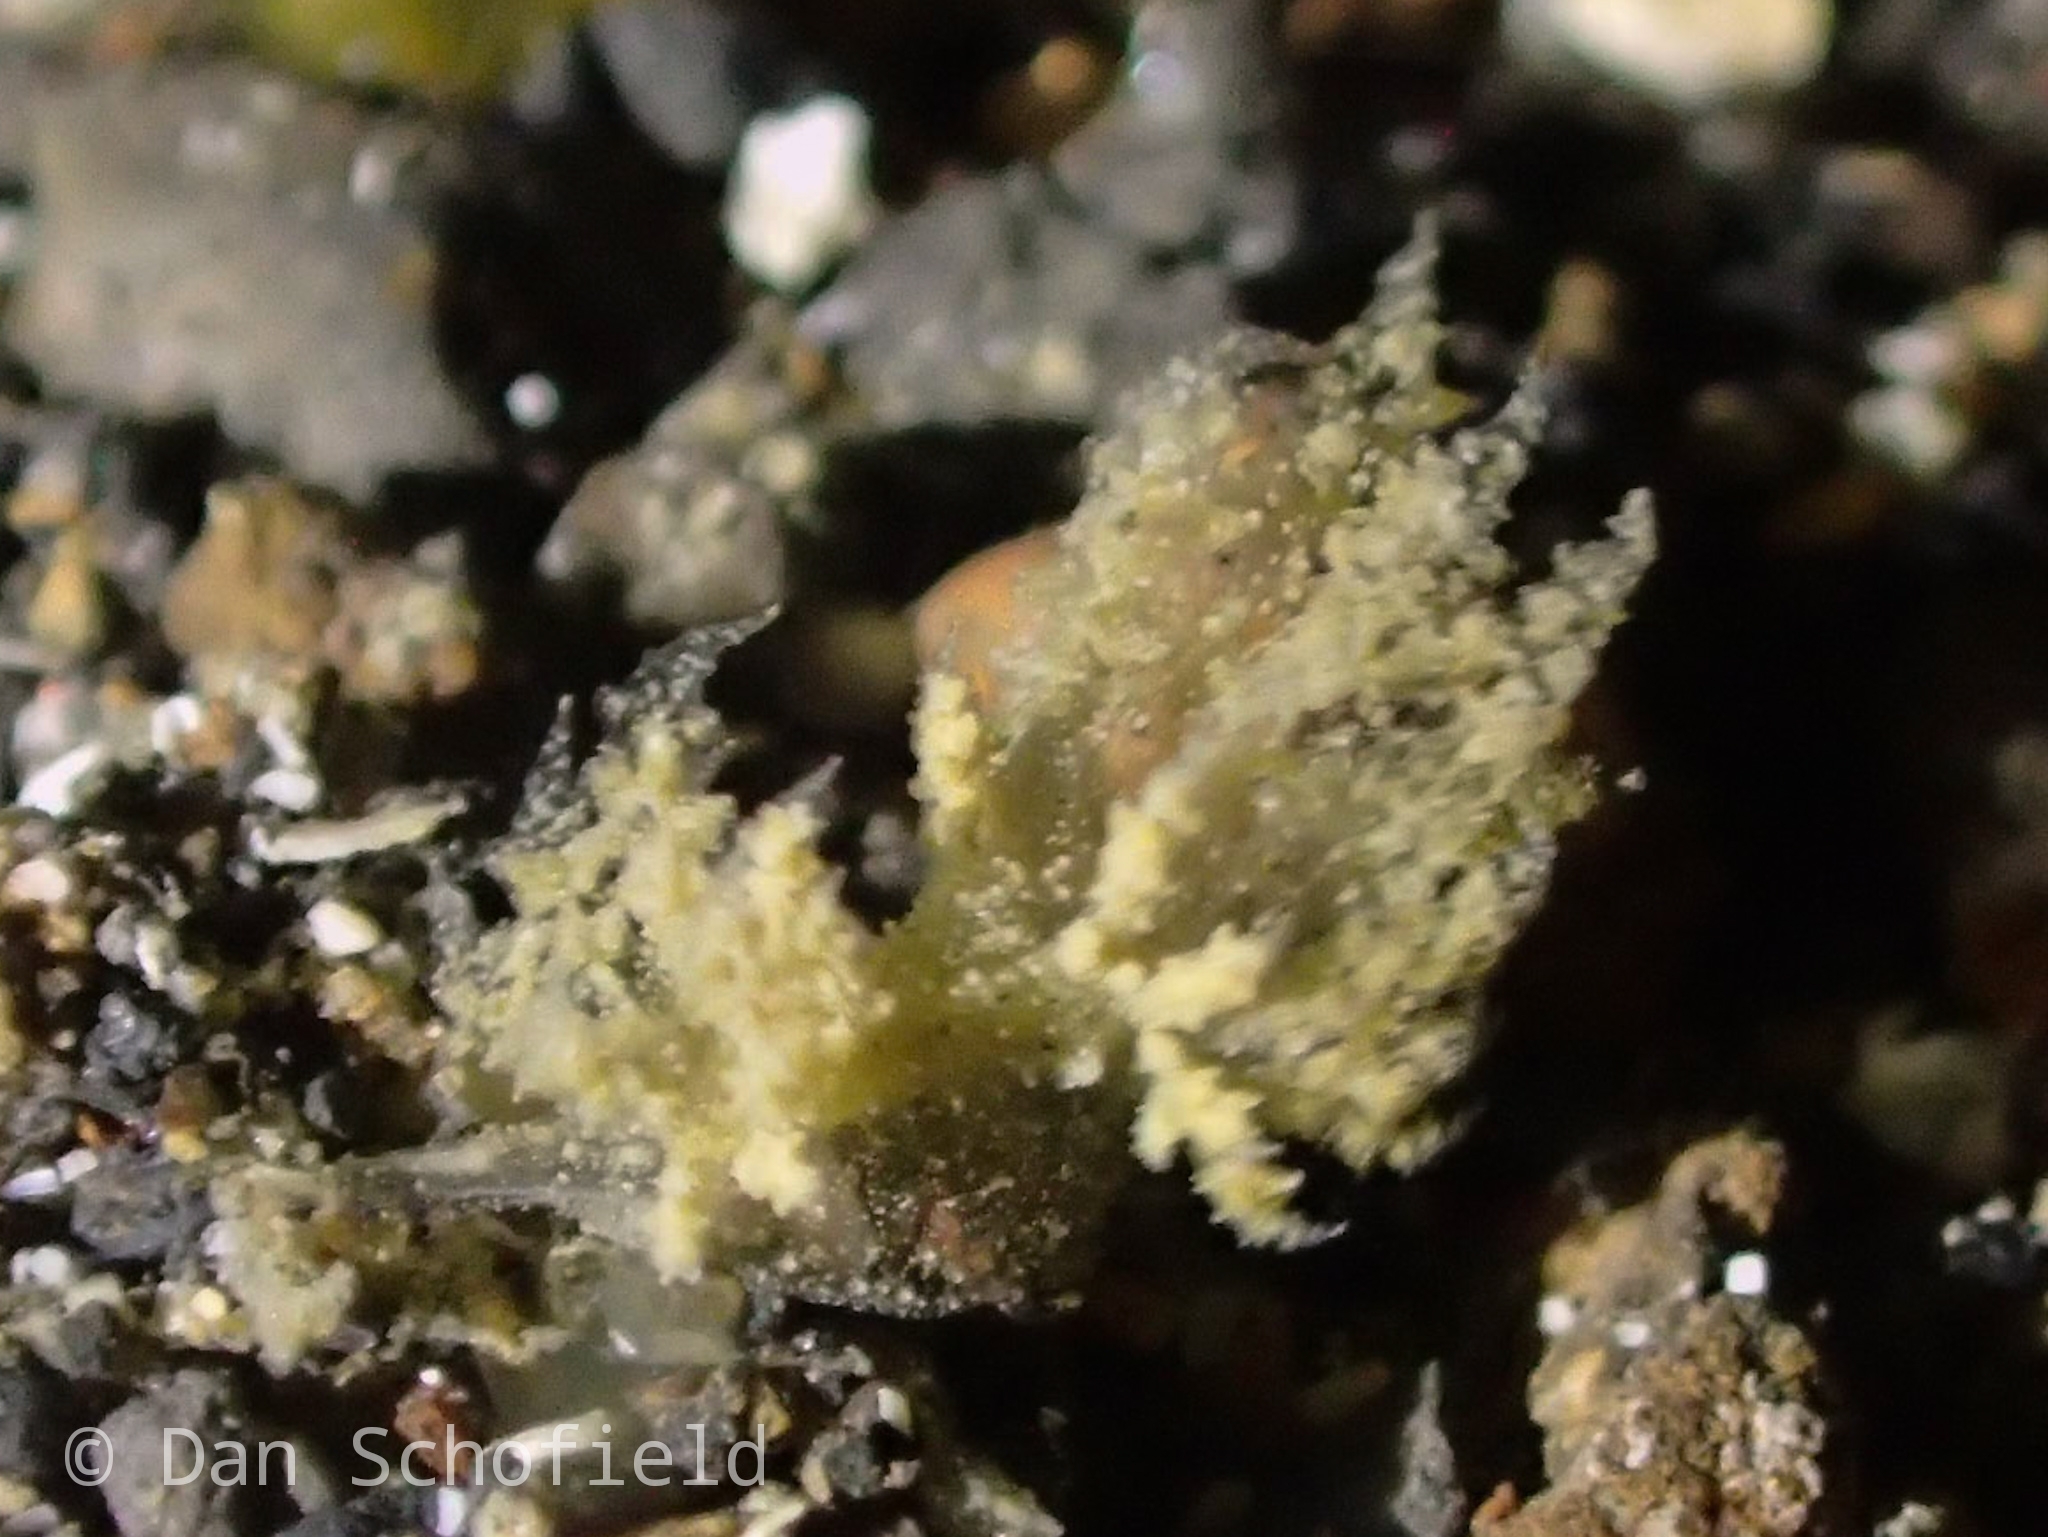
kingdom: Animalia
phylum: Mollusca
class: Gastropoda
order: Nudibranchia
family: Janolidae
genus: Janolus
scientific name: Janolus mirabilis
